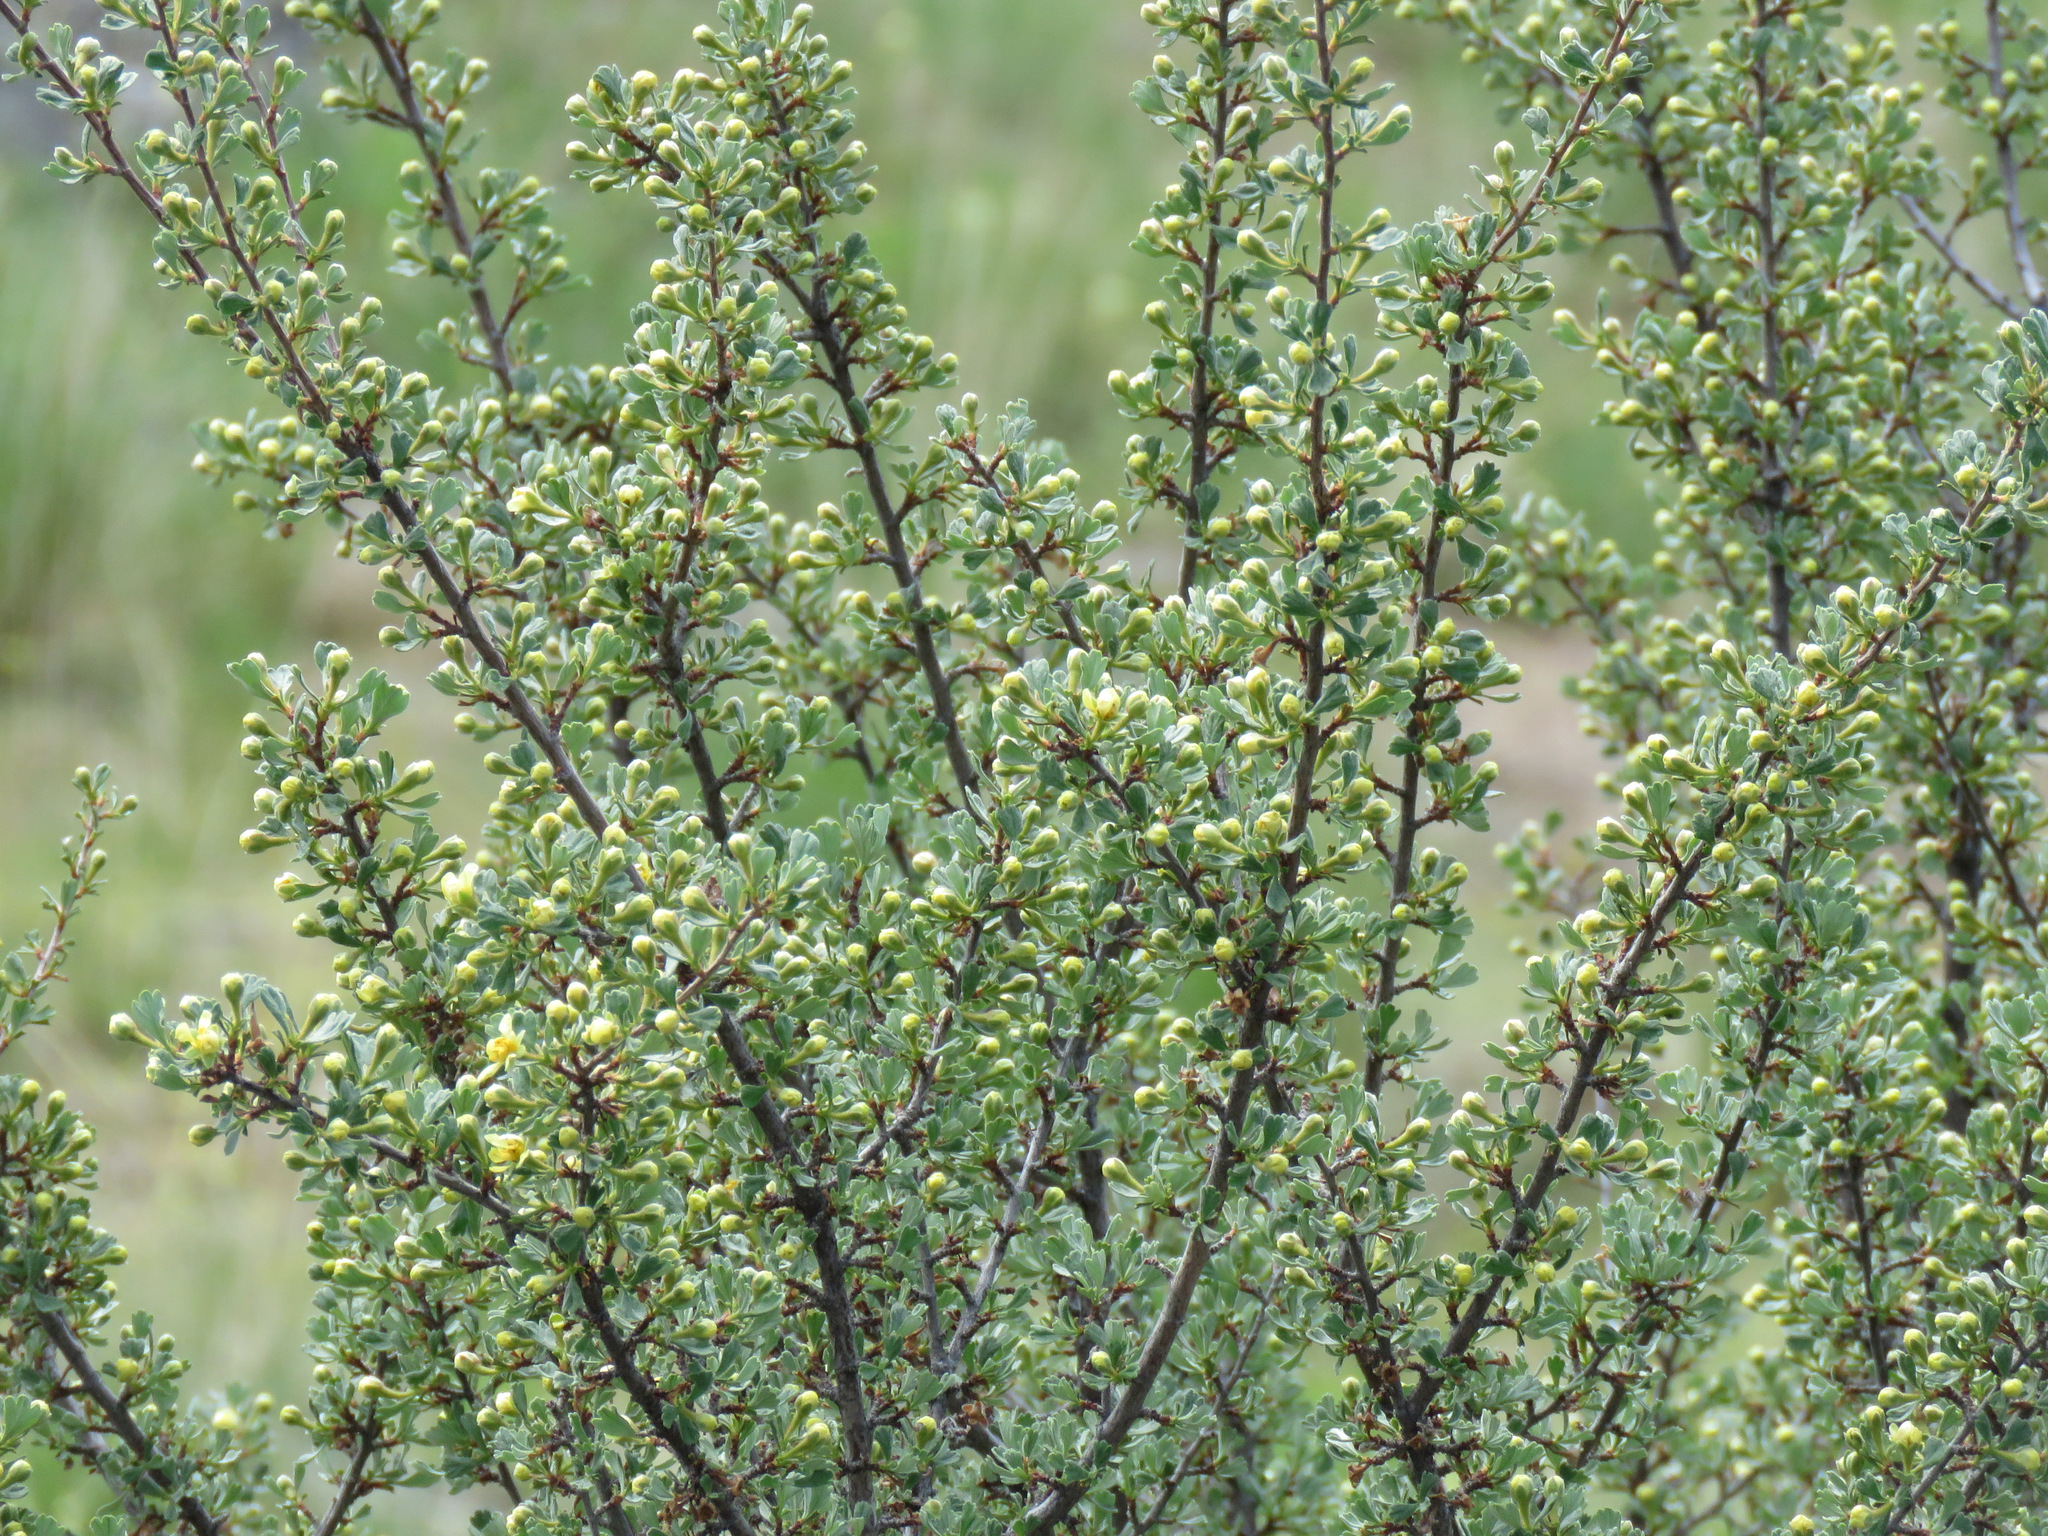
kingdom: Plantae
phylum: Tracheophyta
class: Magnoliopsida
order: Rosales
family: Rosaceae
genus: Purshia
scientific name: Purshia tridentata
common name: Antelope bitterbrush
